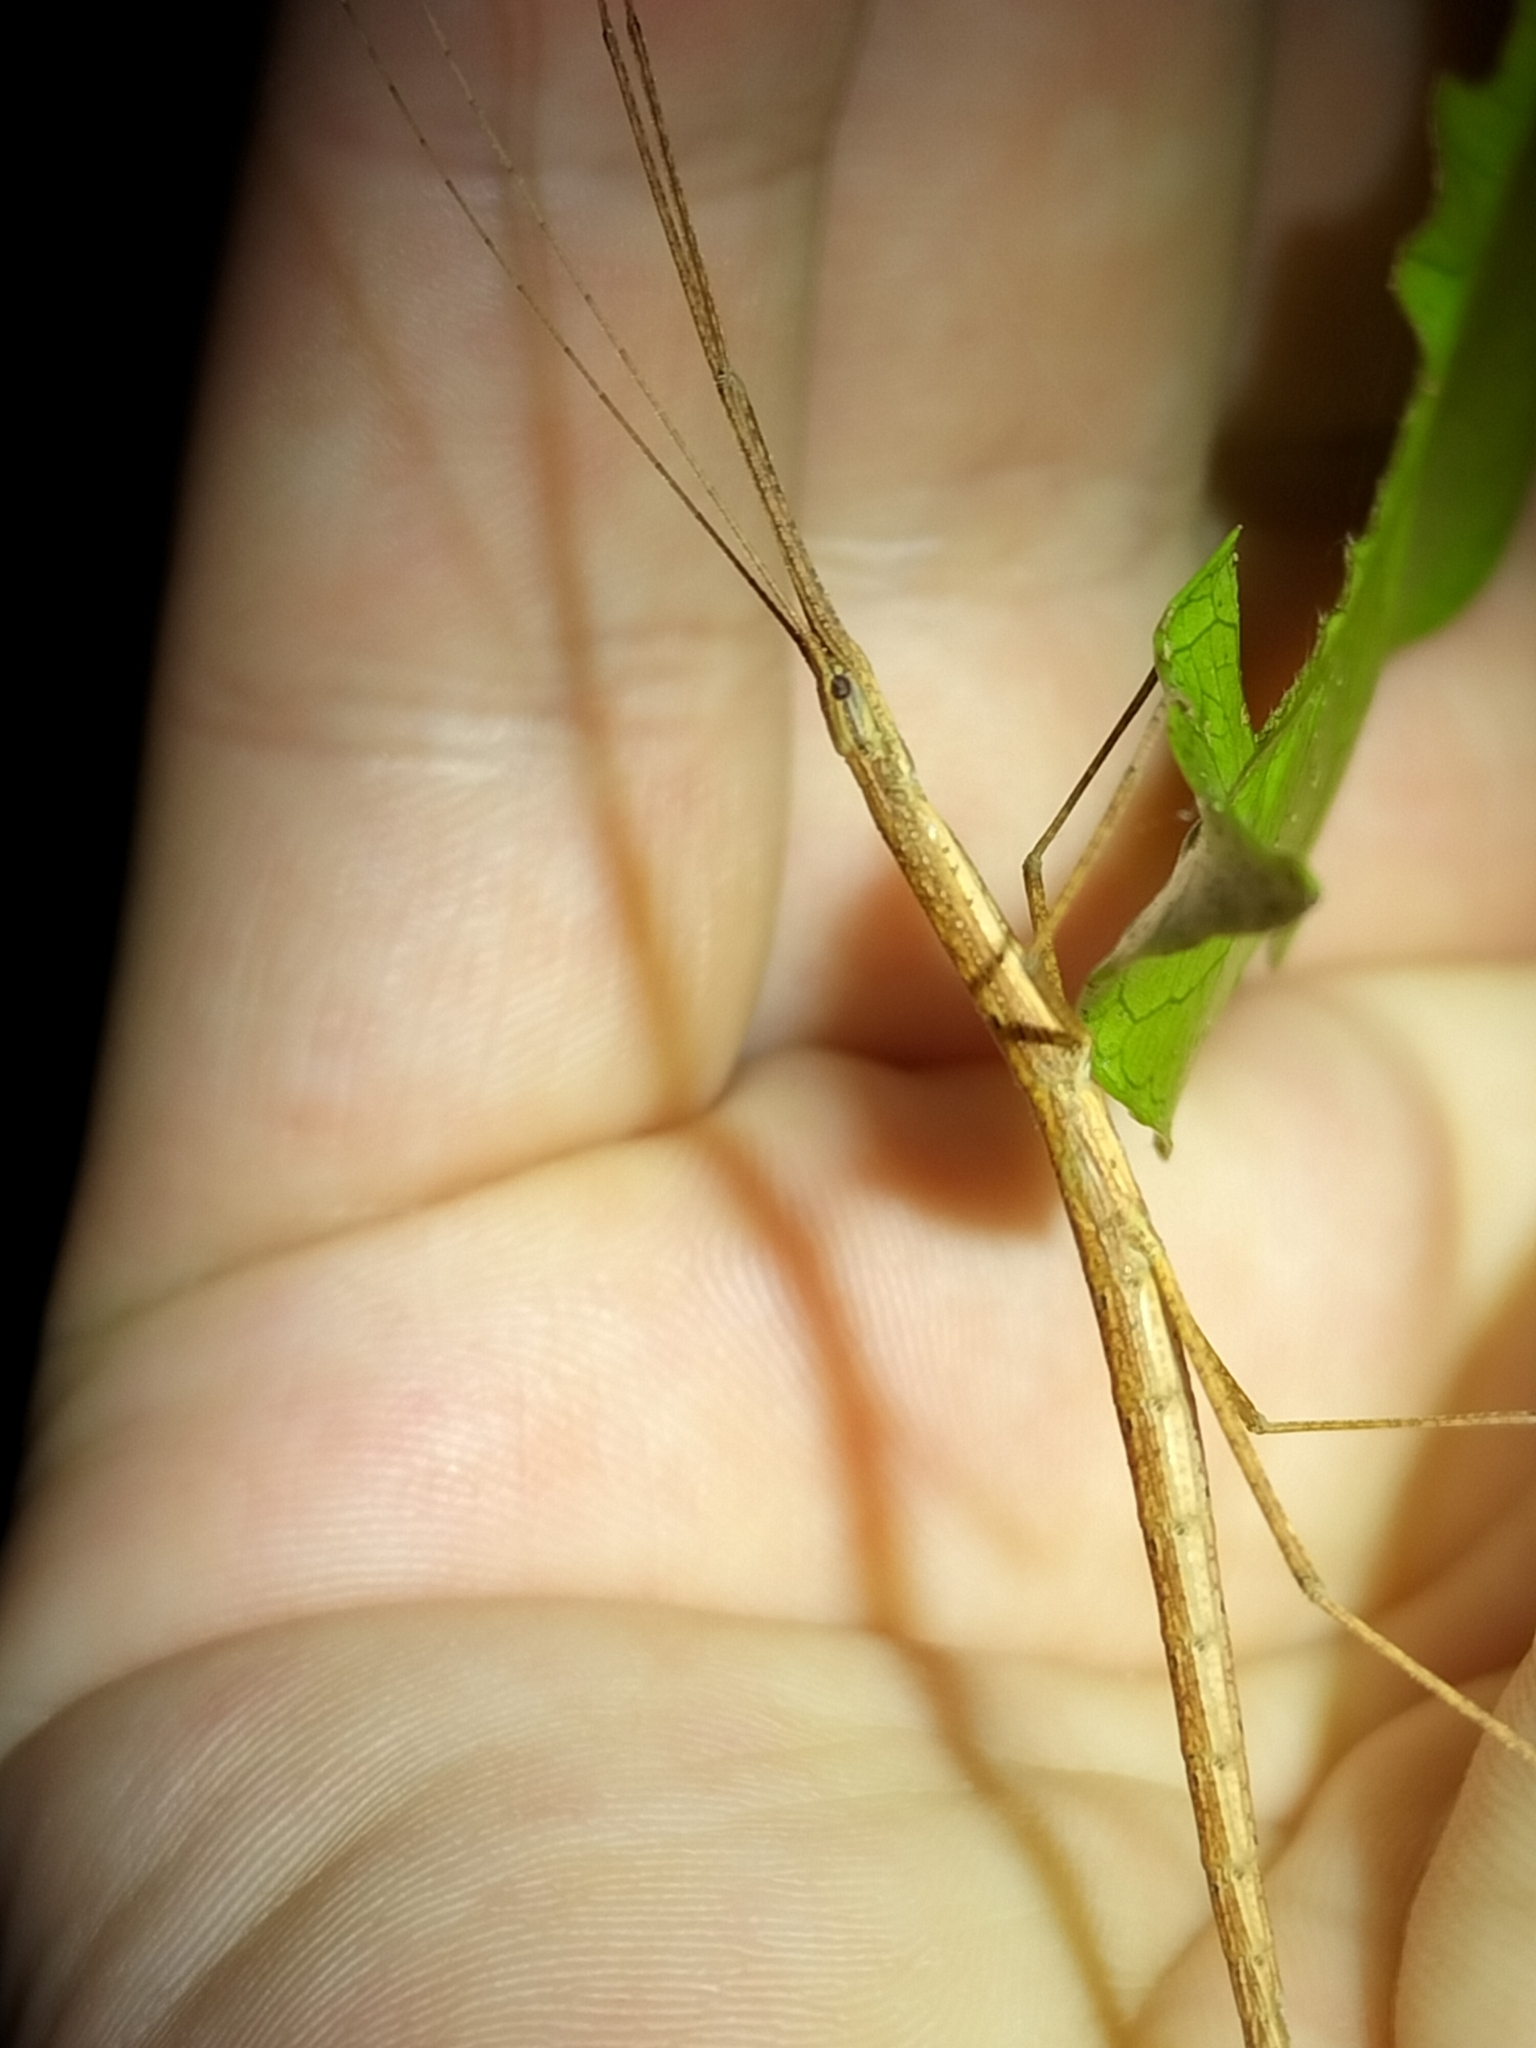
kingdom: Animalia
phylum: Arthropoda
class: Insecta
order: Phasmida
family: Lonchodidae
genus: Sipyloidea
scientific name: Sipyloidea larryi
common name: Hurricane larry stick-insect
